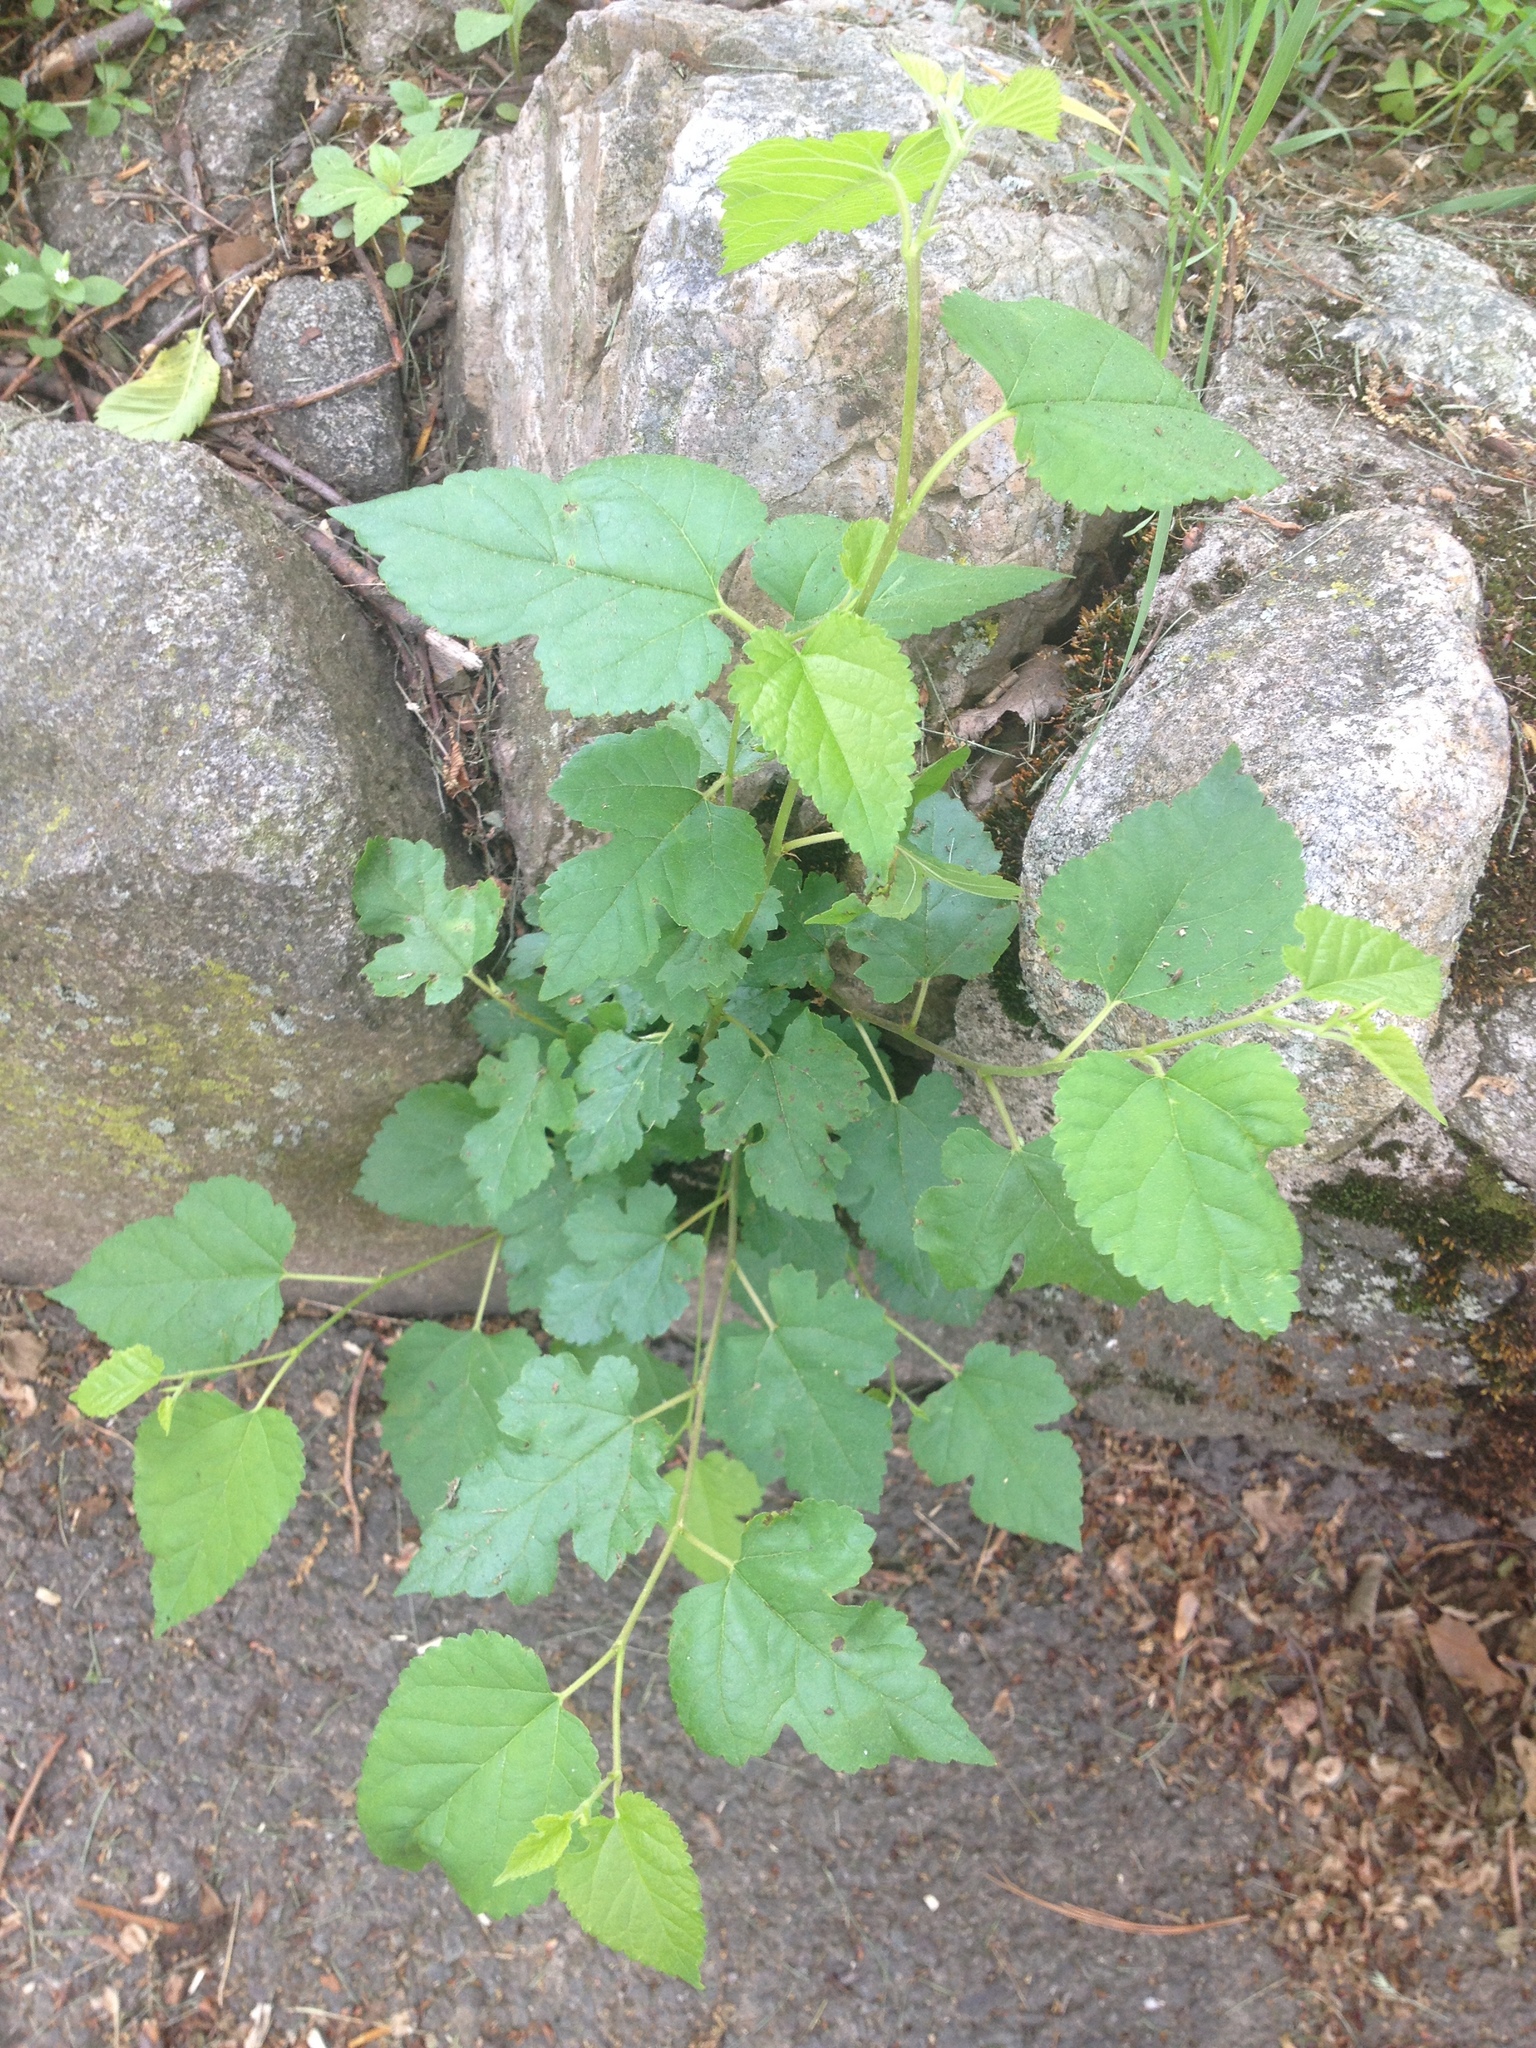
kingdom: Plantae
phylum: Tracheophyta
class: Magnoliopsida
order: Rosales
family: Moraceae
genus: Morus
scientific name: Morus alba
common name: White mulberry
